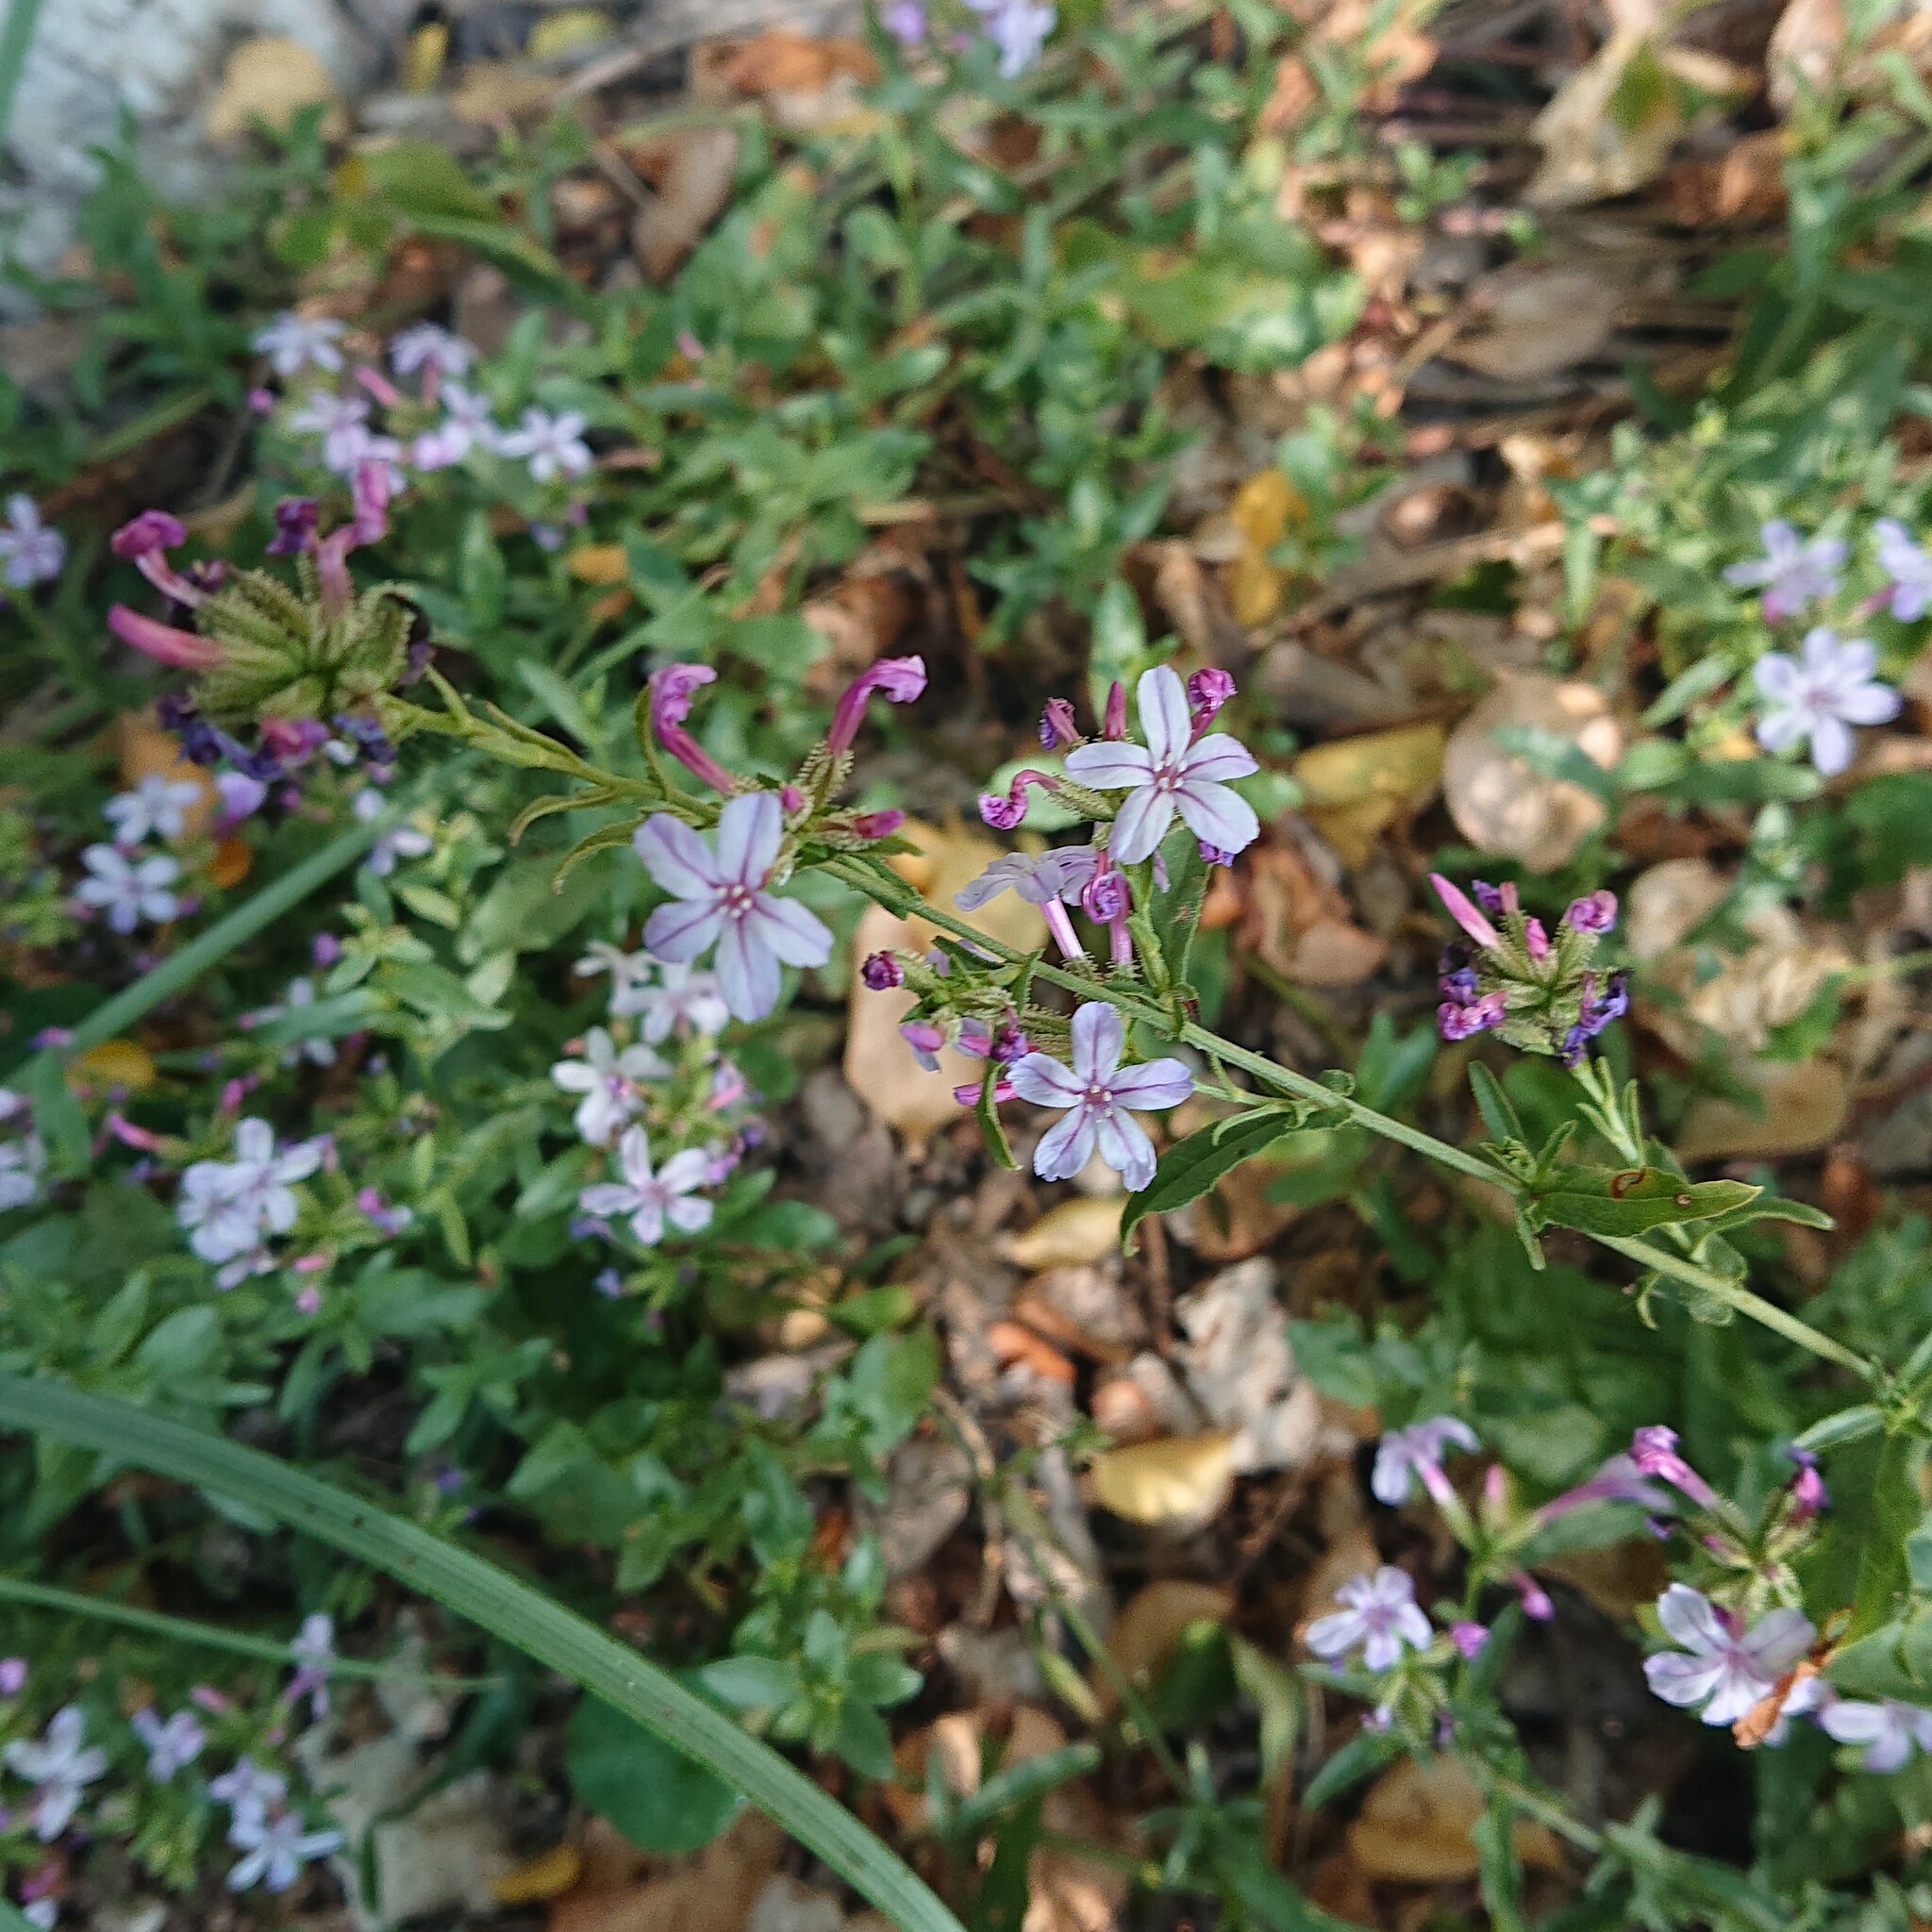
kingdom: Plantae
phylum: Tracheophyta
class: Magnoliopsida
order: Caryophyllales
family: Plumbaginaceae
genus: Plumbago
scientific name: Plumbago europaea
